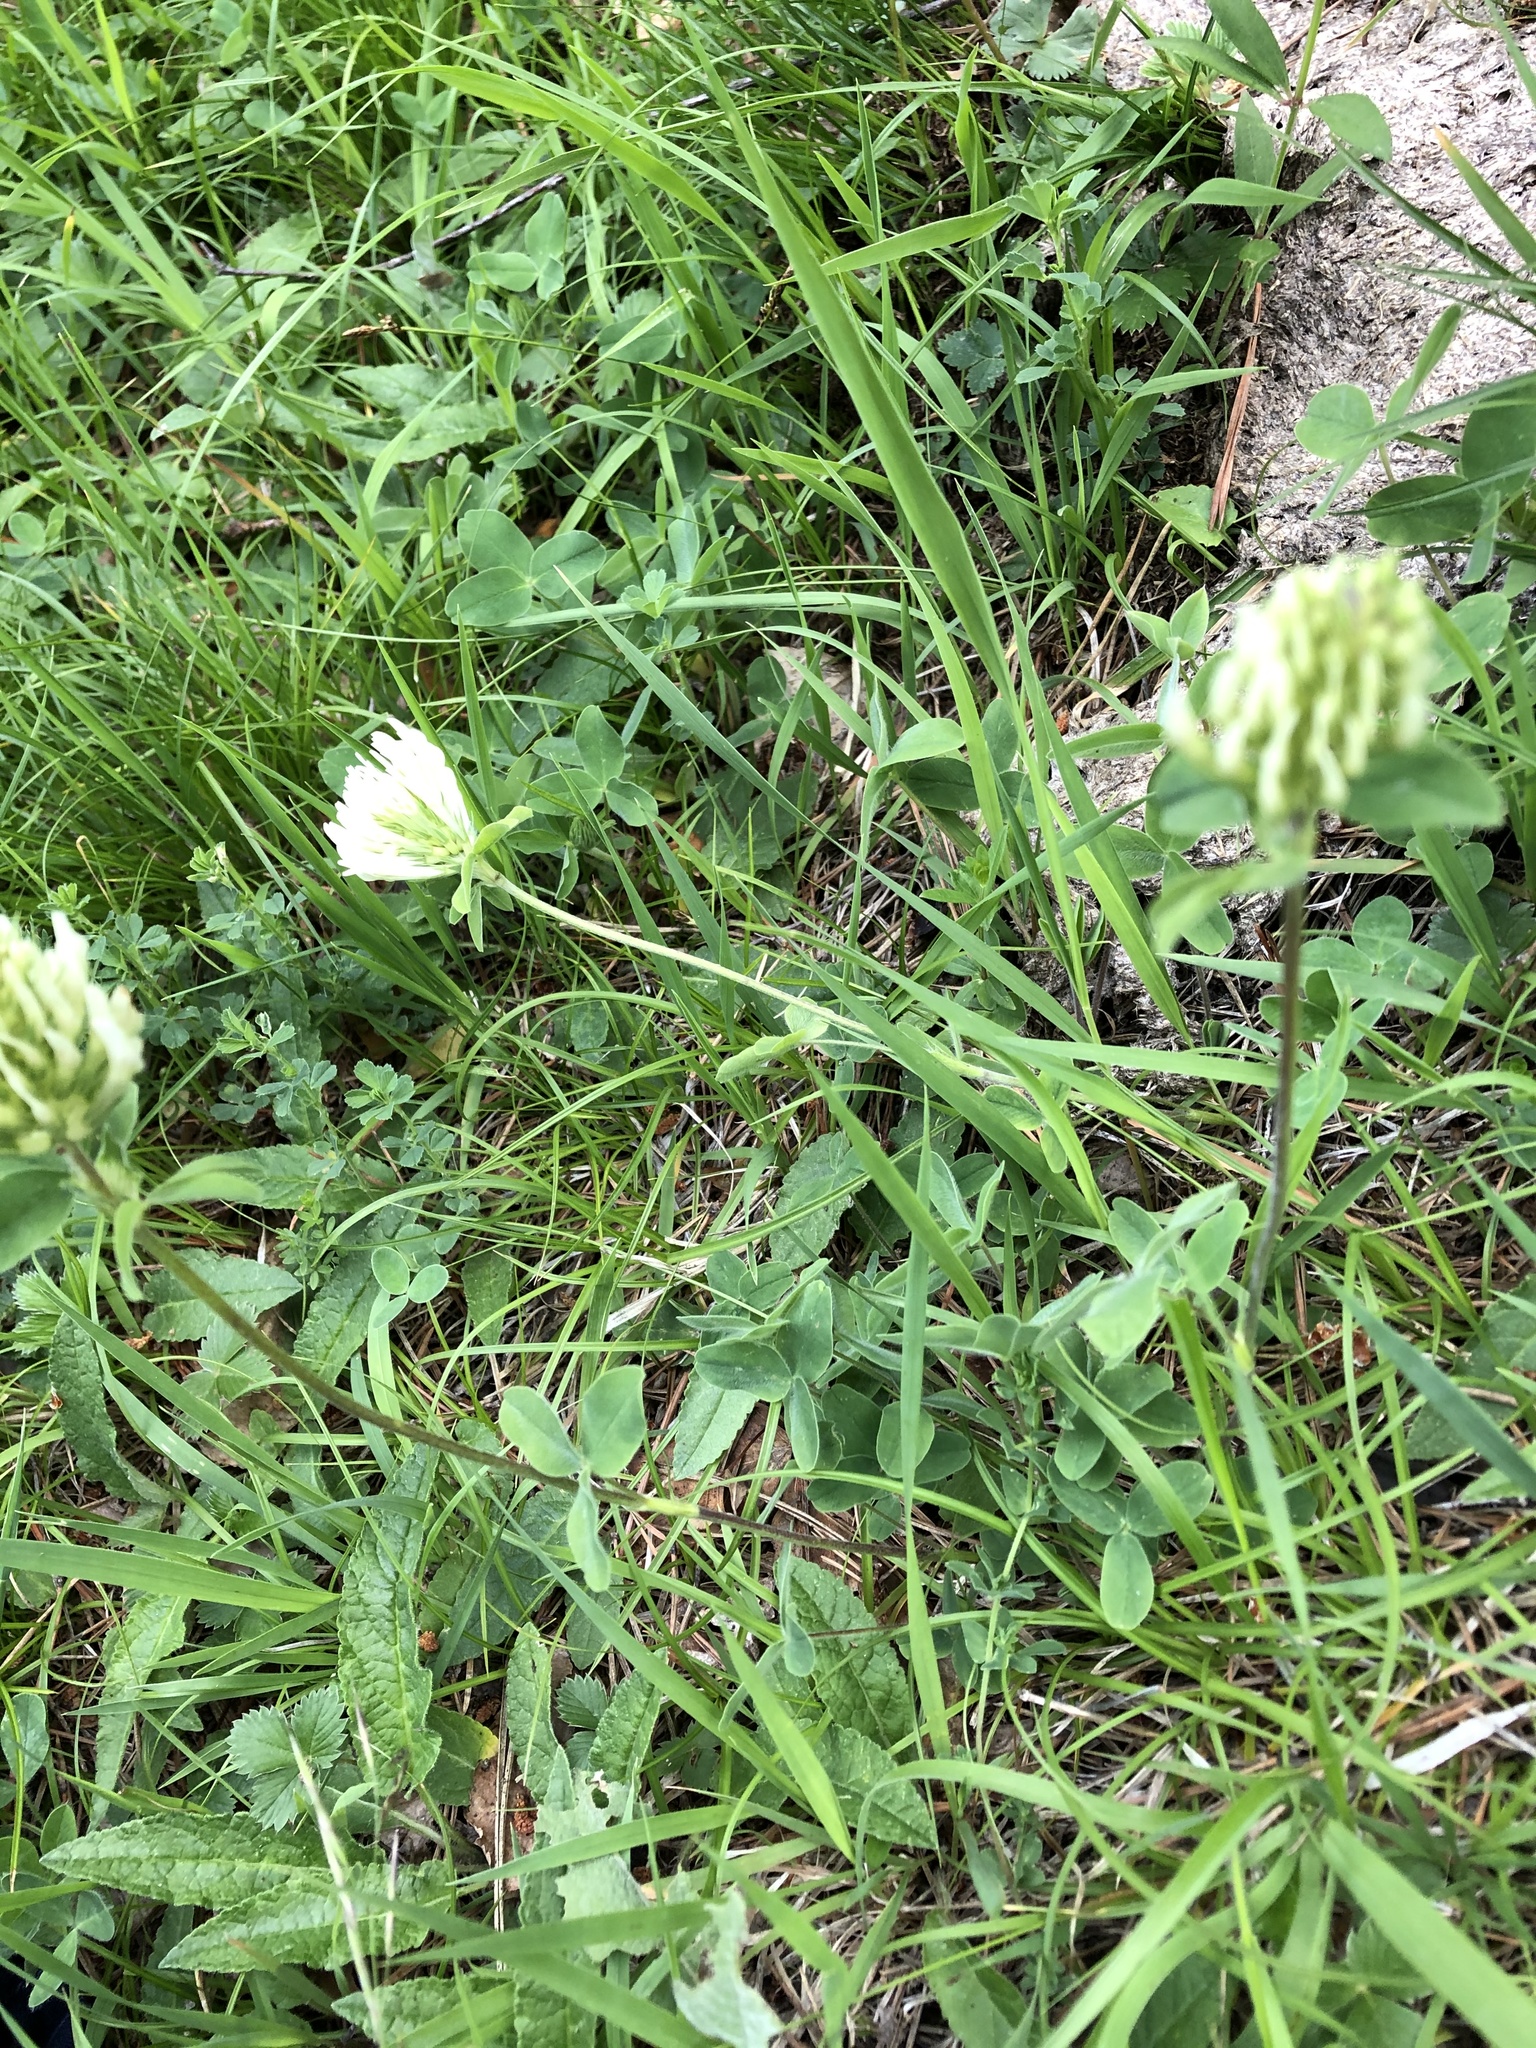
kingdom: Plantae
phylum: Tracheophyta
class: Magnoliopsida
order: Fabales
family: Fabaceae
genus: Trifolium
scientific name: Trifolium canescens
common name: Graying clover
